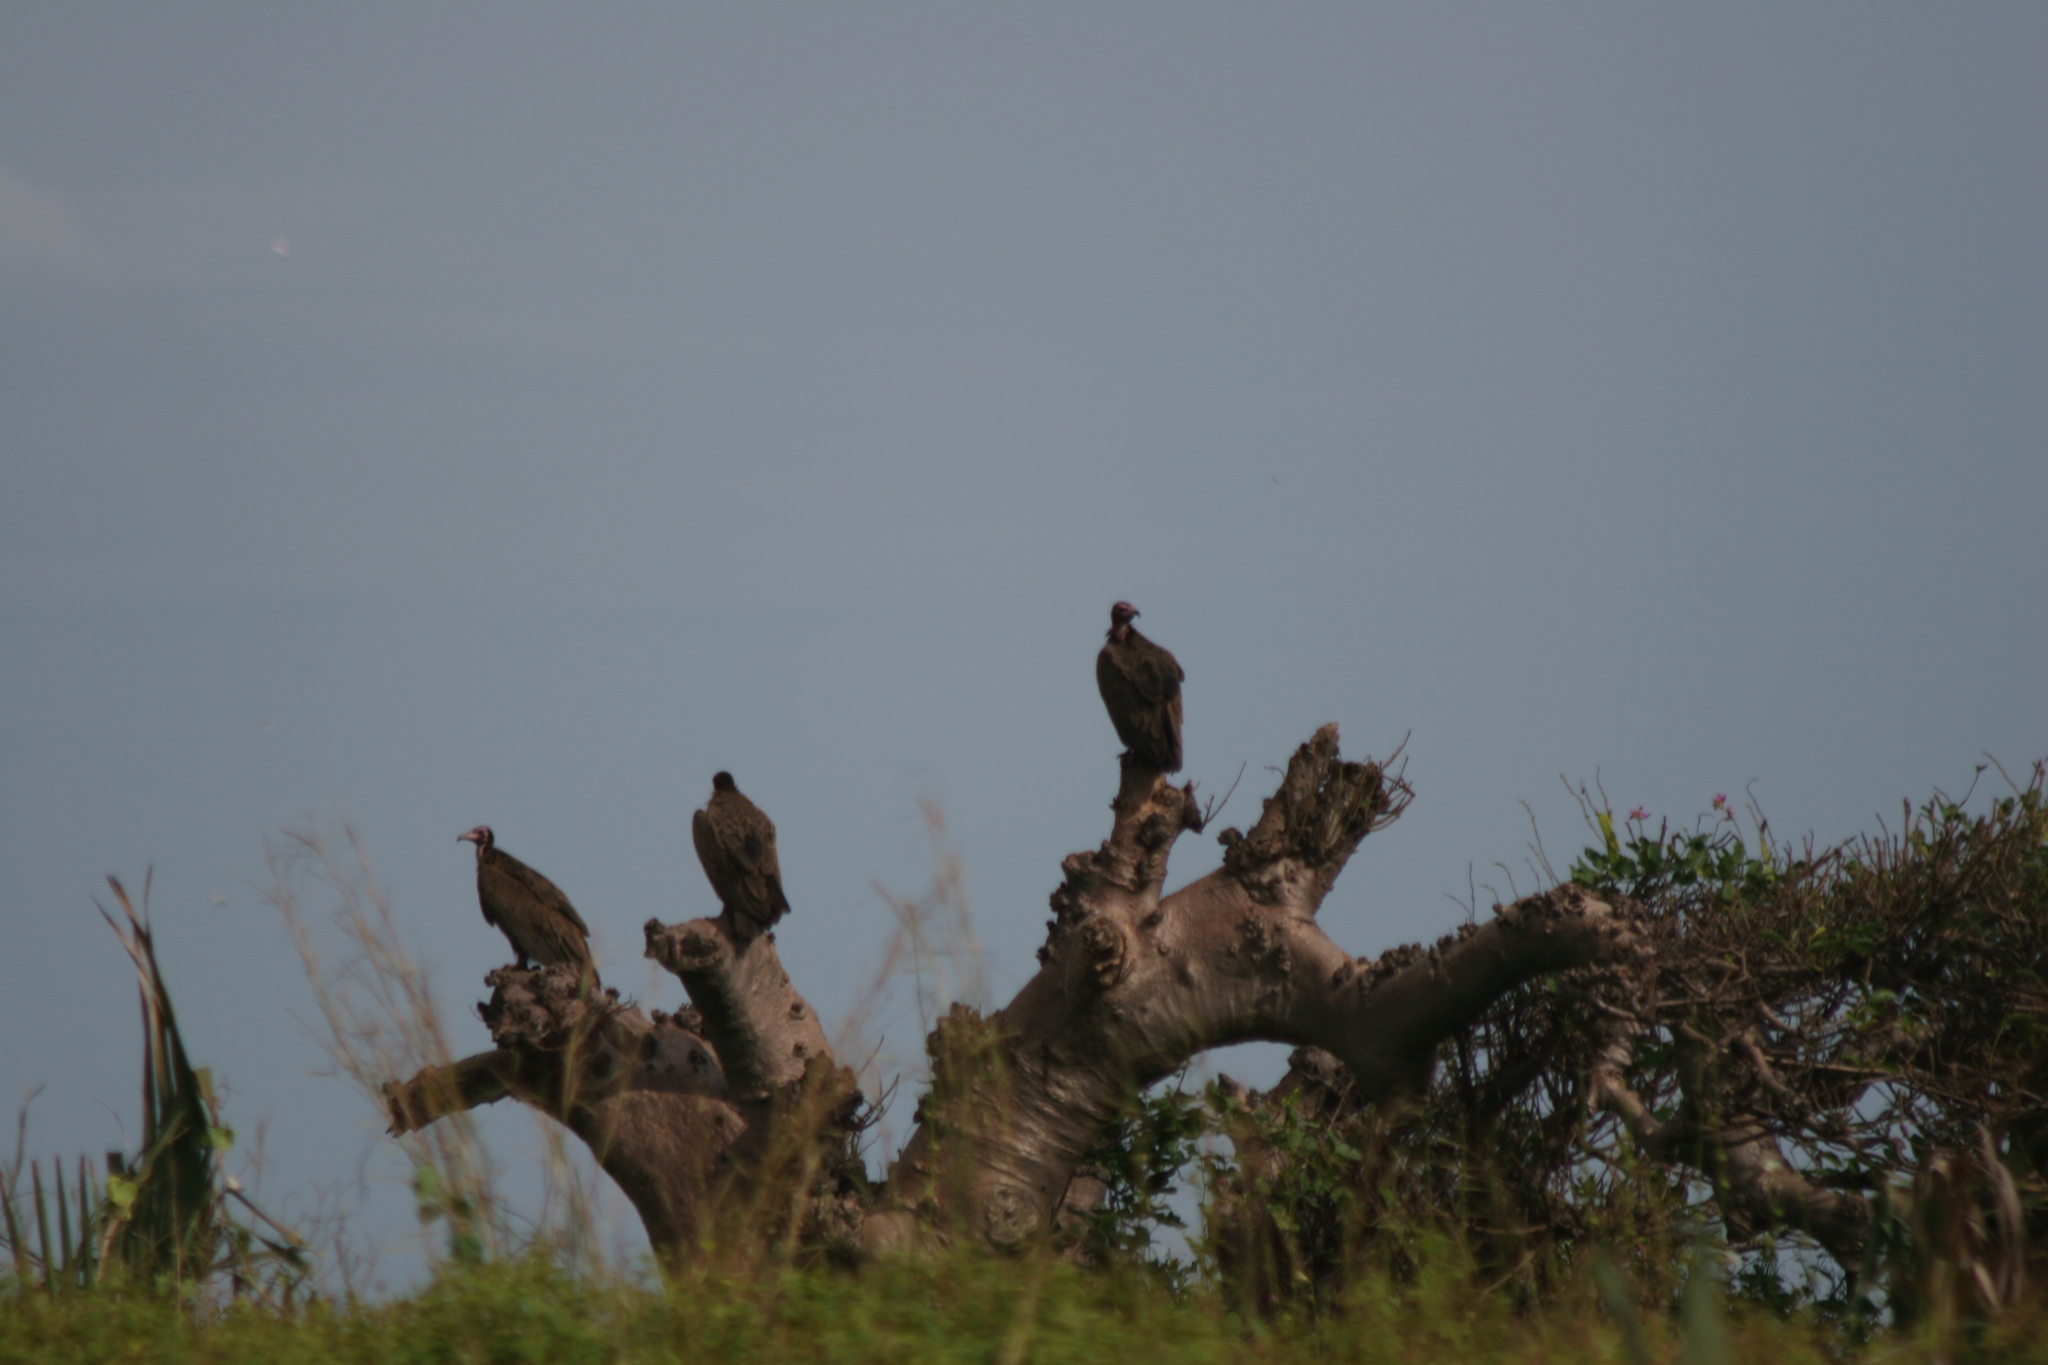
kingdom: Animalia
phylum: Chordata
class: Aves
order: Accipitriformes
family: Accipitridae
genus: Necrosyrtes
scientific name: Necrosyrtes monachus
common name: Hooded vulture
